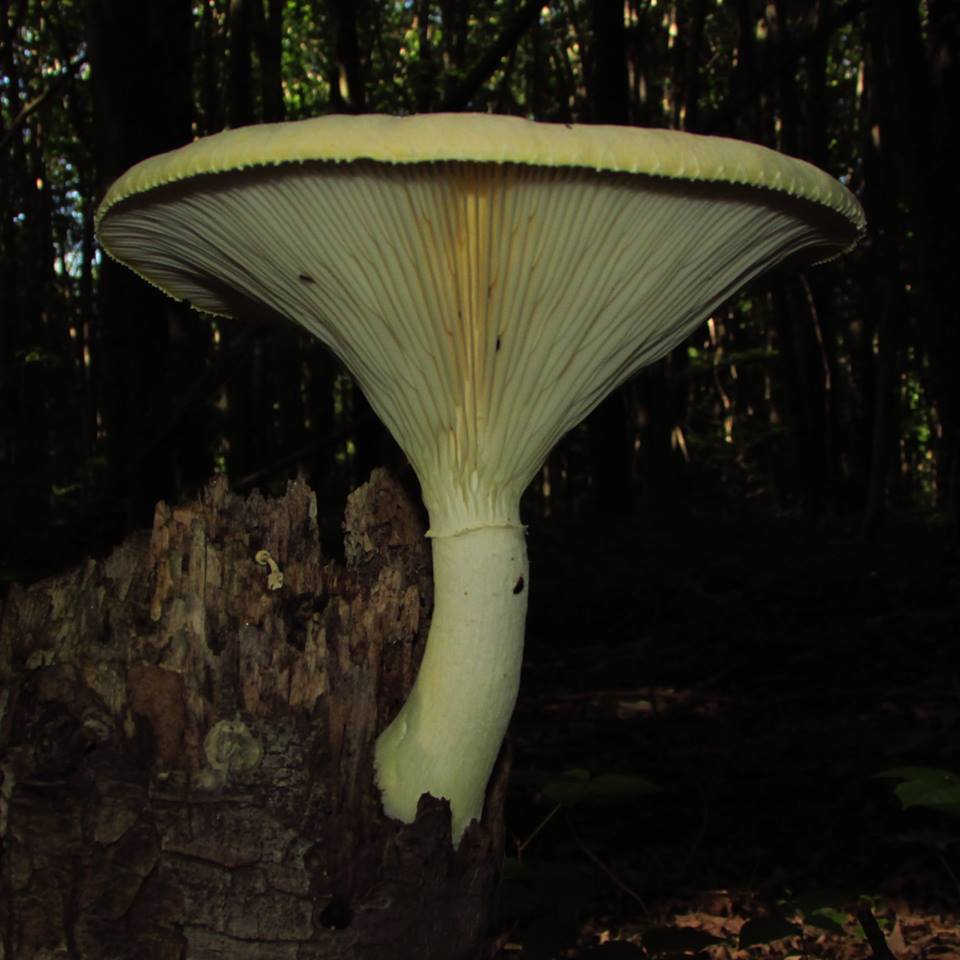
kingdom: Fungi
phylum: Basidiomycota
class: Agaricomycetes
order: Polyporales
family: Polyporaceae
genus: Lentinus
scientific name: Lentinus levis
